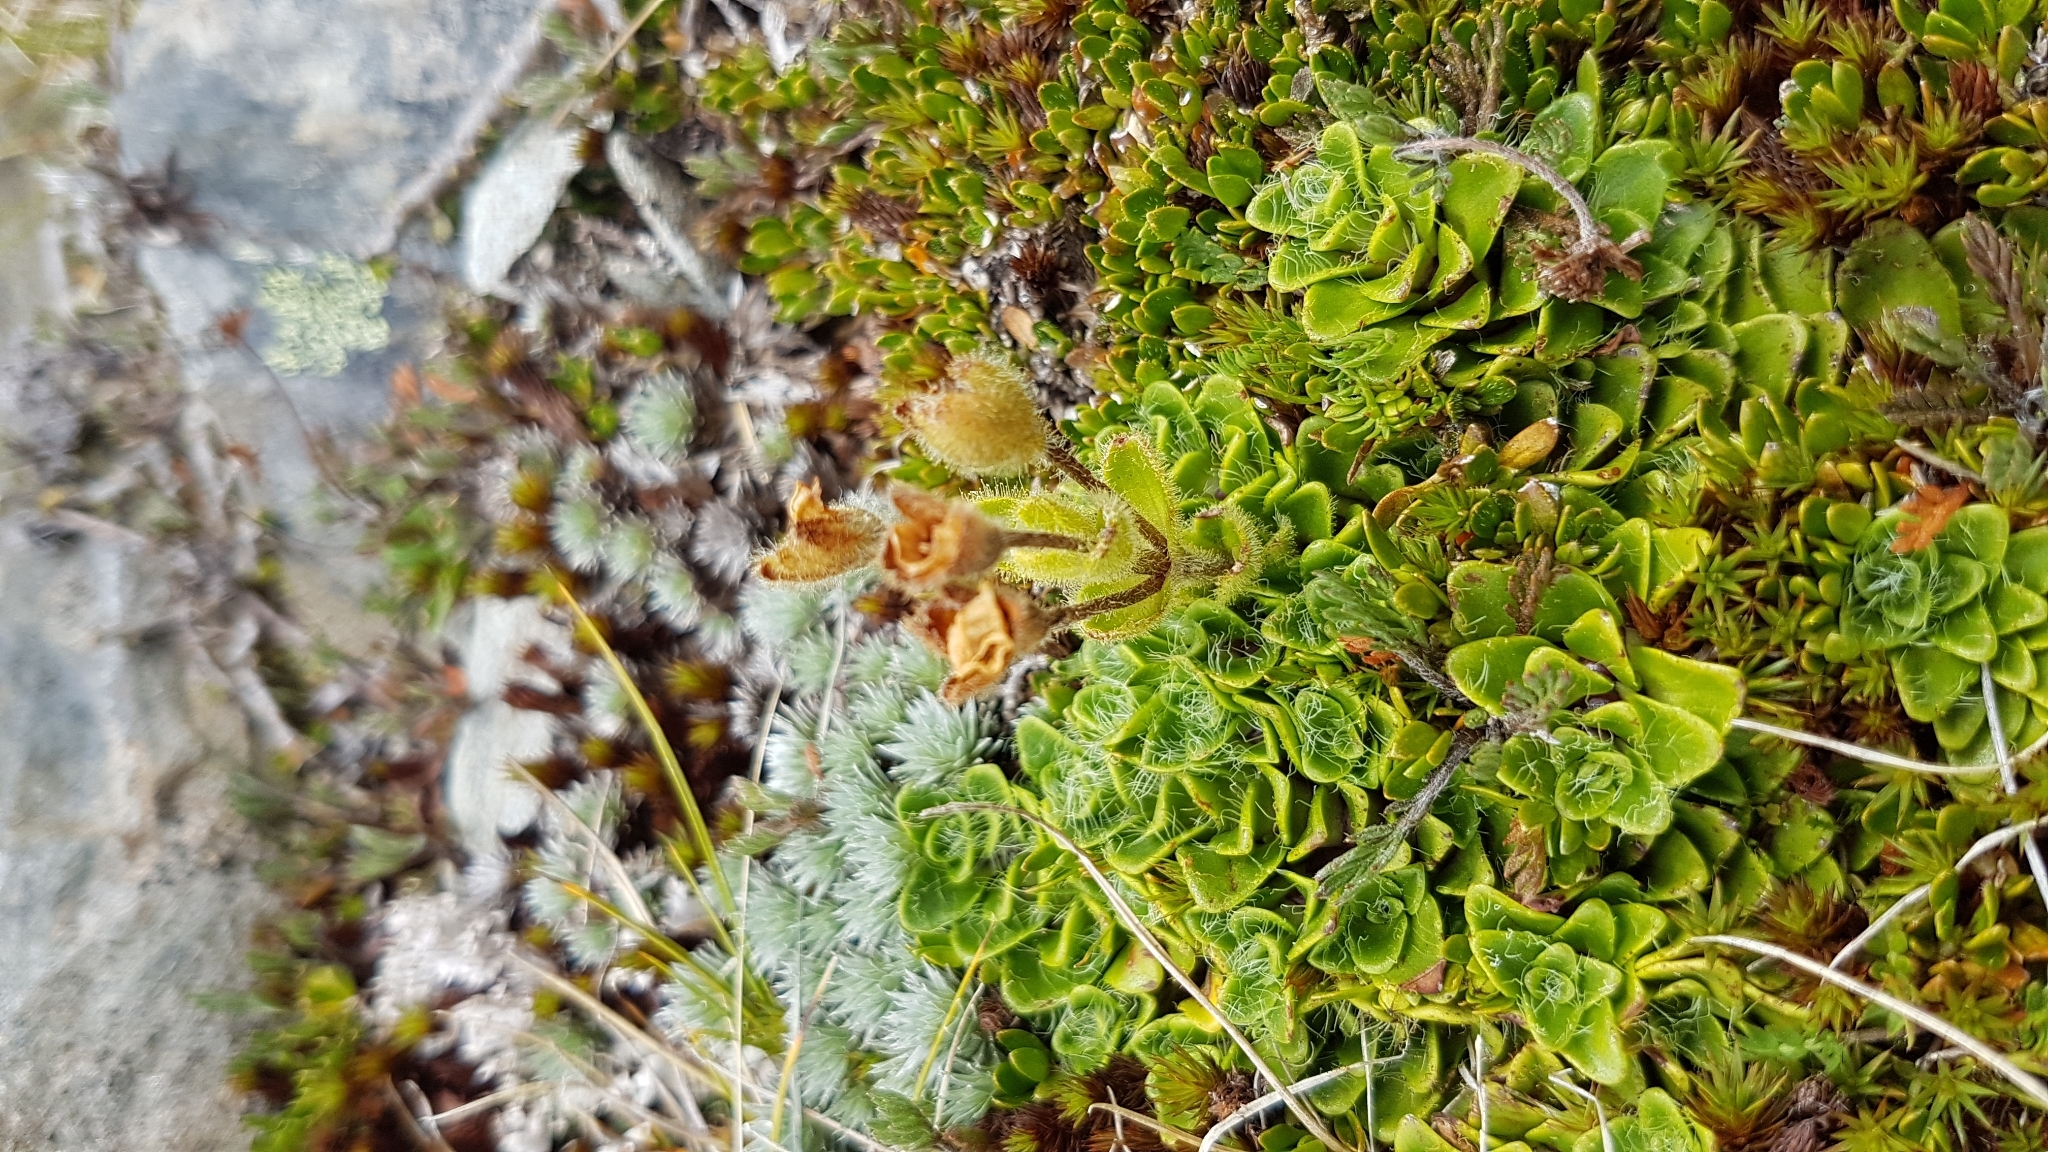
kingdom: Plantae
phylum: Tracheophyta
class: Magnoliopsida
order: Lamiales
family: Plantaginaceae
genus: Ourisia
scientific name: Ourisia glandulosa
